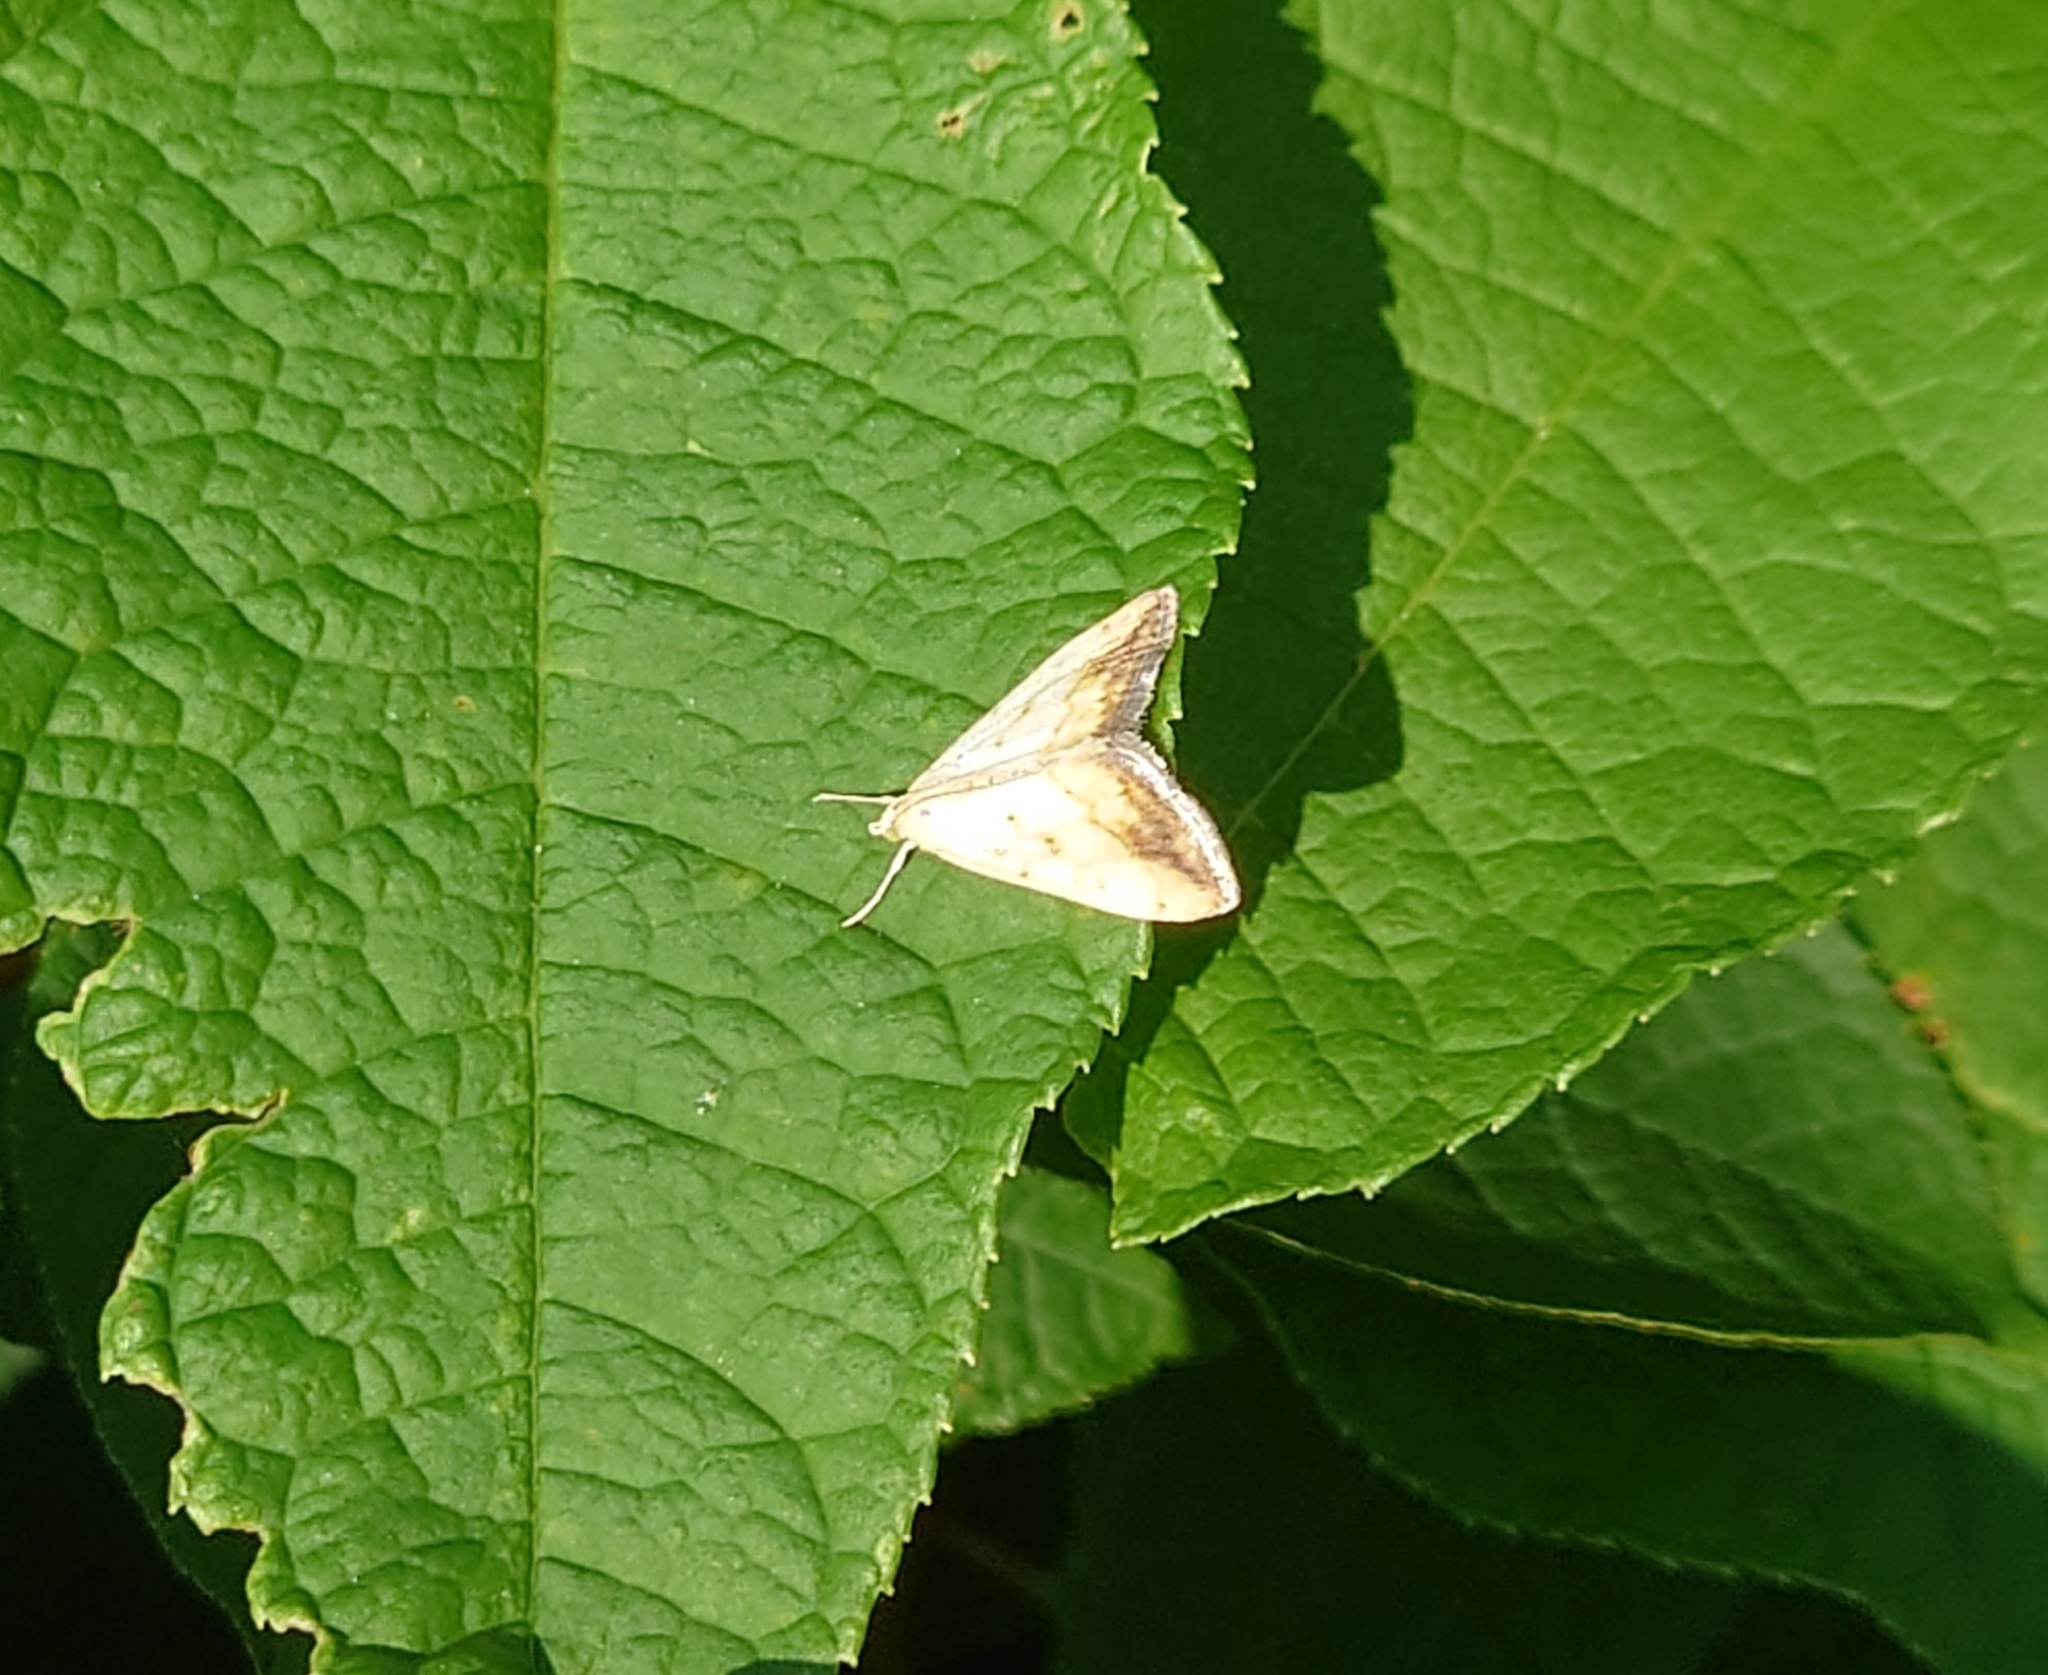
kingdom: Animalia
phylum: Arthropoda
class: Insecta
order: Lepidoptera
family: Crambidae
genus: Evergestis
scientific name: Evergestis extimalis
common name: Marbled yellow pearl
